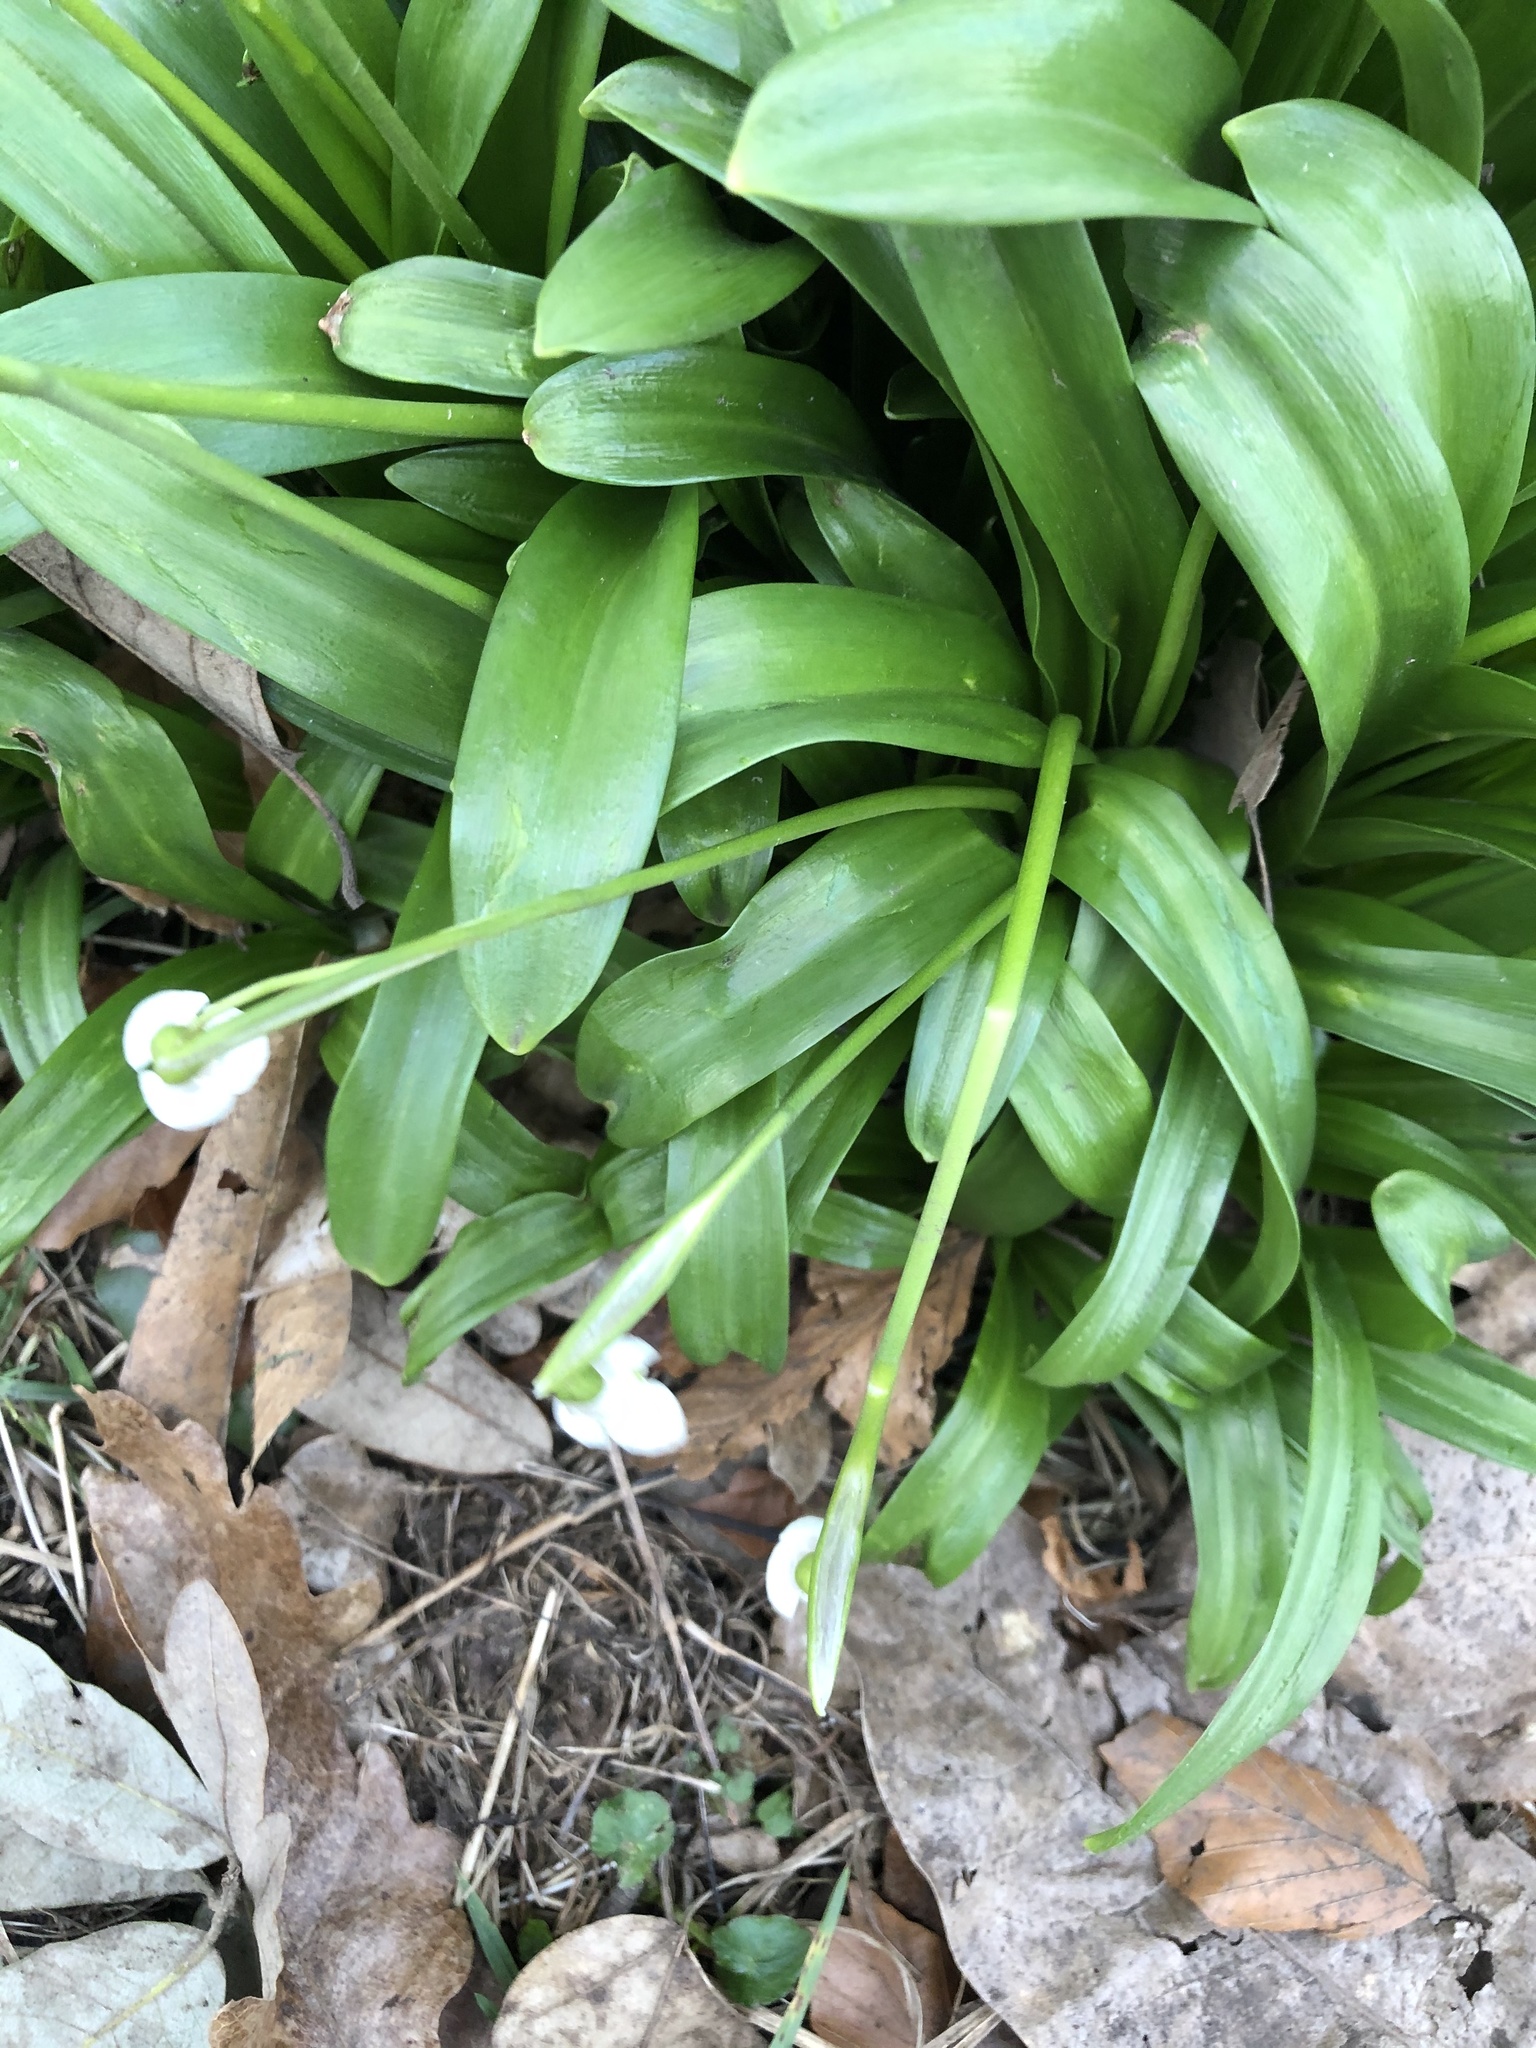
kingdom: Plantae
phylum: Tracheophyta
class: Liliopsida
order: Asparagales
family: Amaryllidaceae
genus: Galanthus
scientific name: Galanthus woronowii
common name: Green snowdrop
